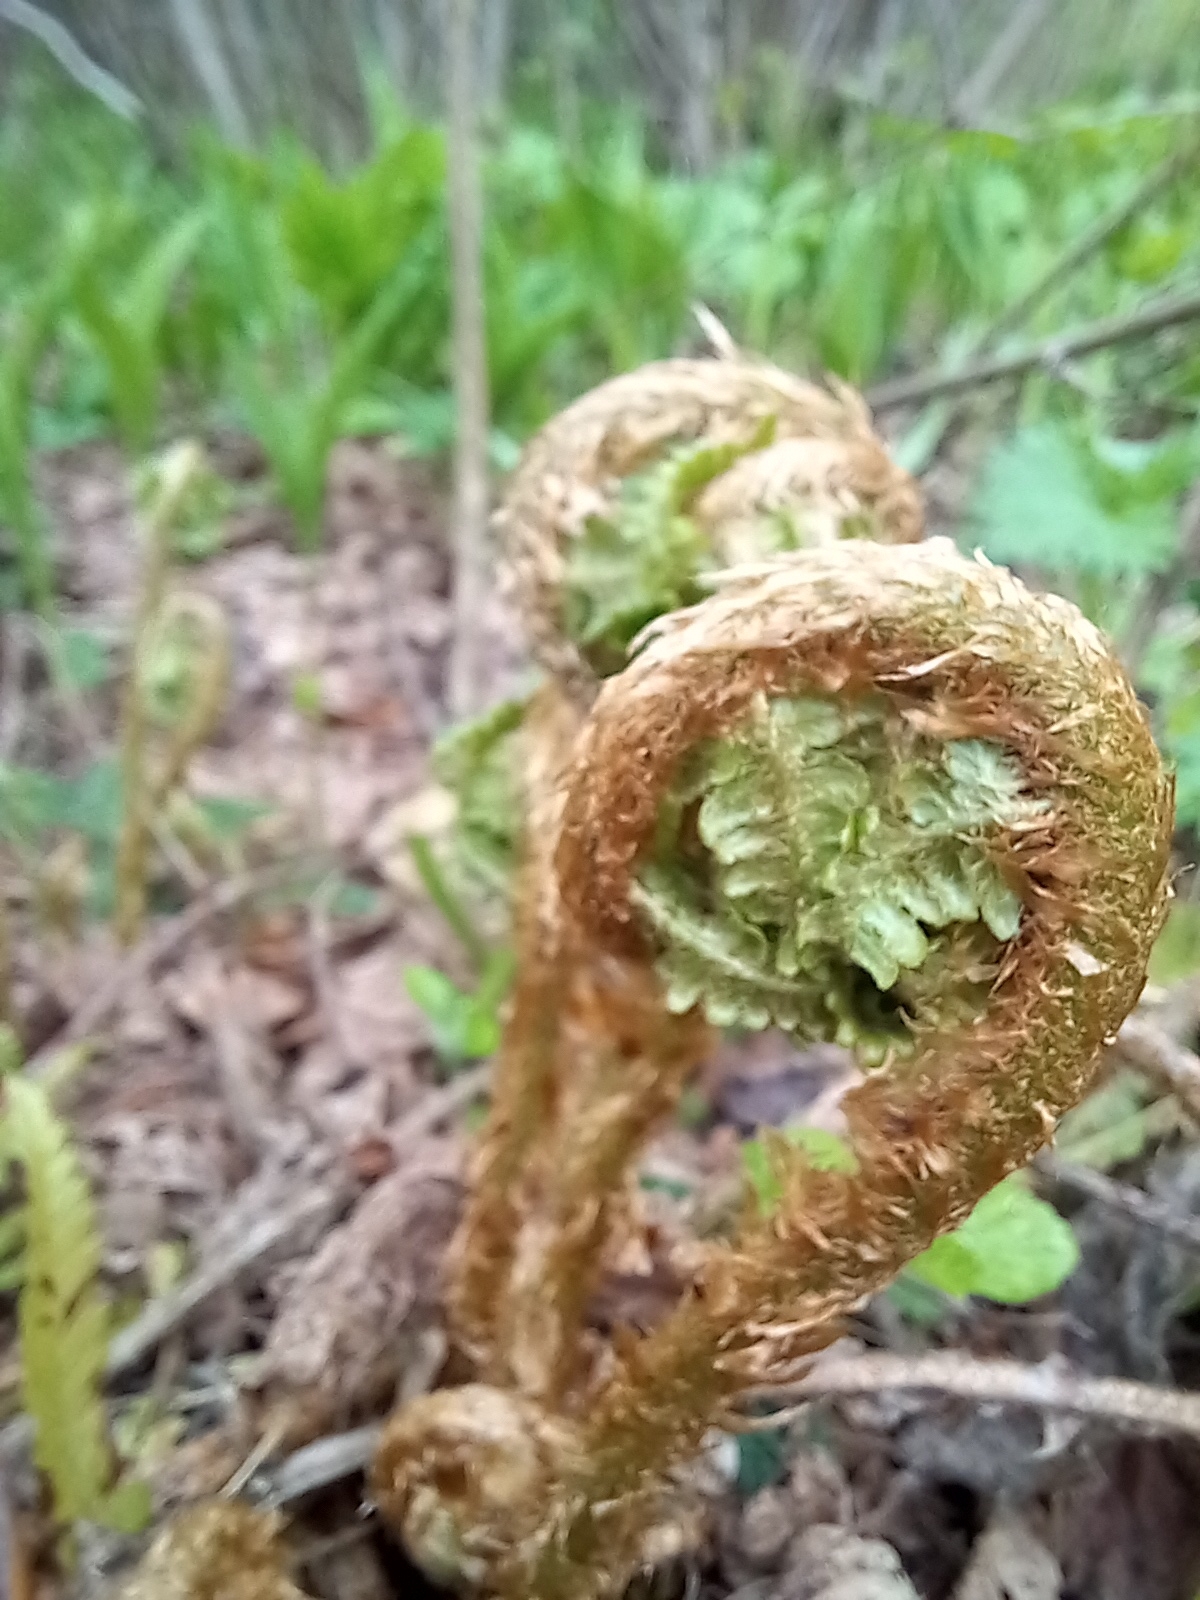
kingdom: Plantae
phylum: Tracheophyta
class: Polypodiopsida
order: Polypodiales
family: Dryopteridaceae
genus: Dryopteris
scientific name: Dryopteris filix-mas
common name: Male fern
